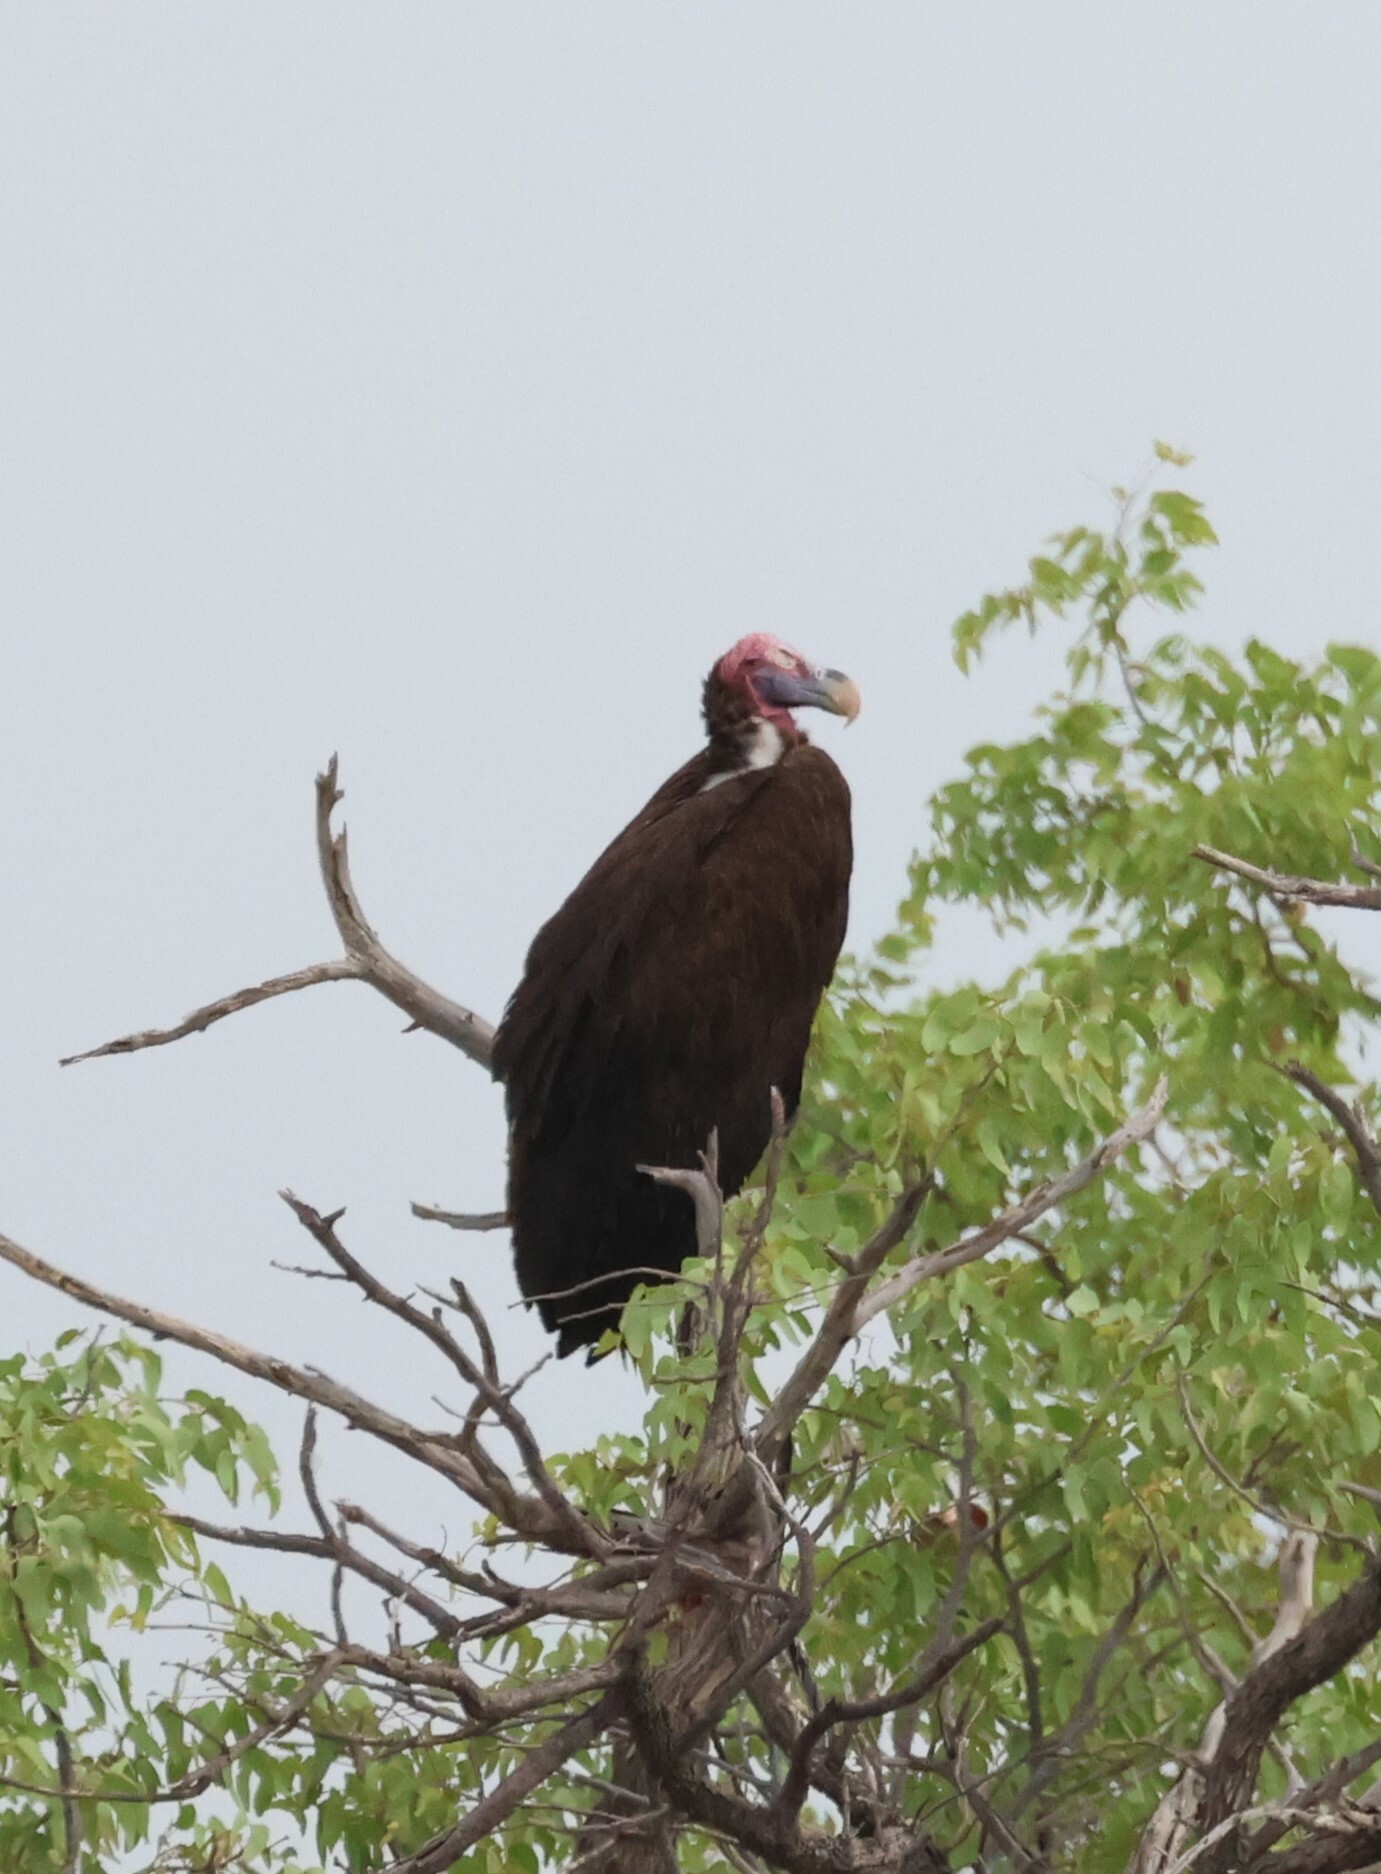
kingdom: Animalia
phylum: Chordata
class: Aves
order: Accipitriformes
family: Accipitridae
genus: Torgos
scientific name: Torgos tracheliotos
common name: Lappet-faced vulture
